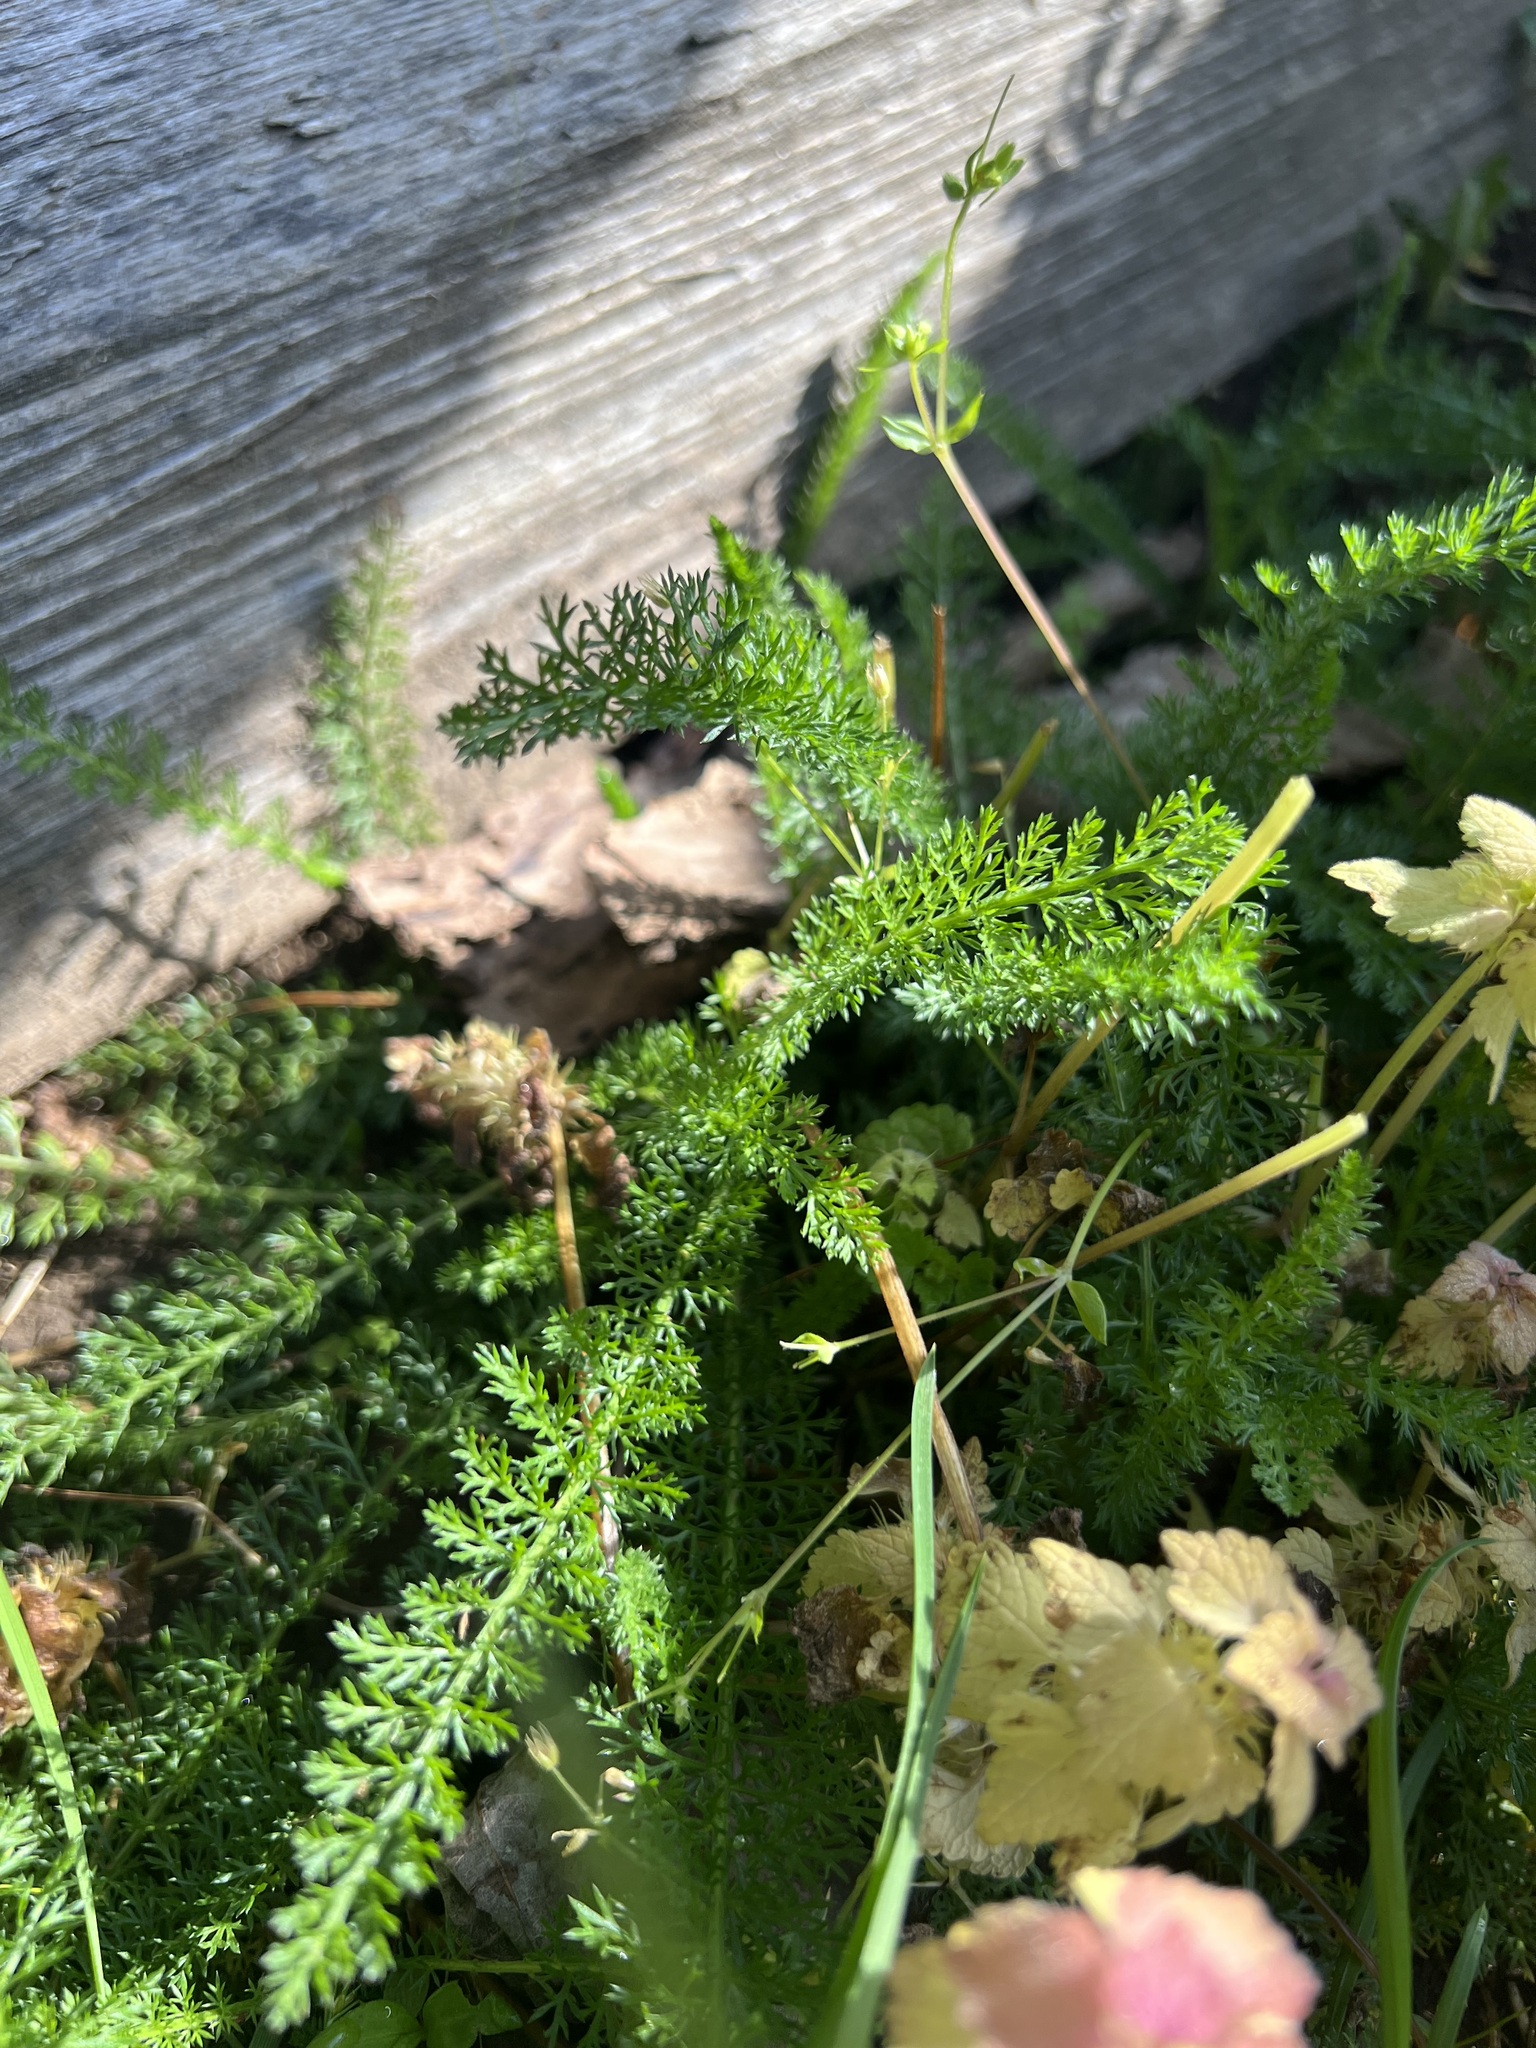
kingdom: Plantae
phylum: Tracheophyta
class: Magnoliopsida
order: Asterales
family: Asteraceae
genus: Achillea
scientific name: Achillea millefolium
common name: Yarrow
